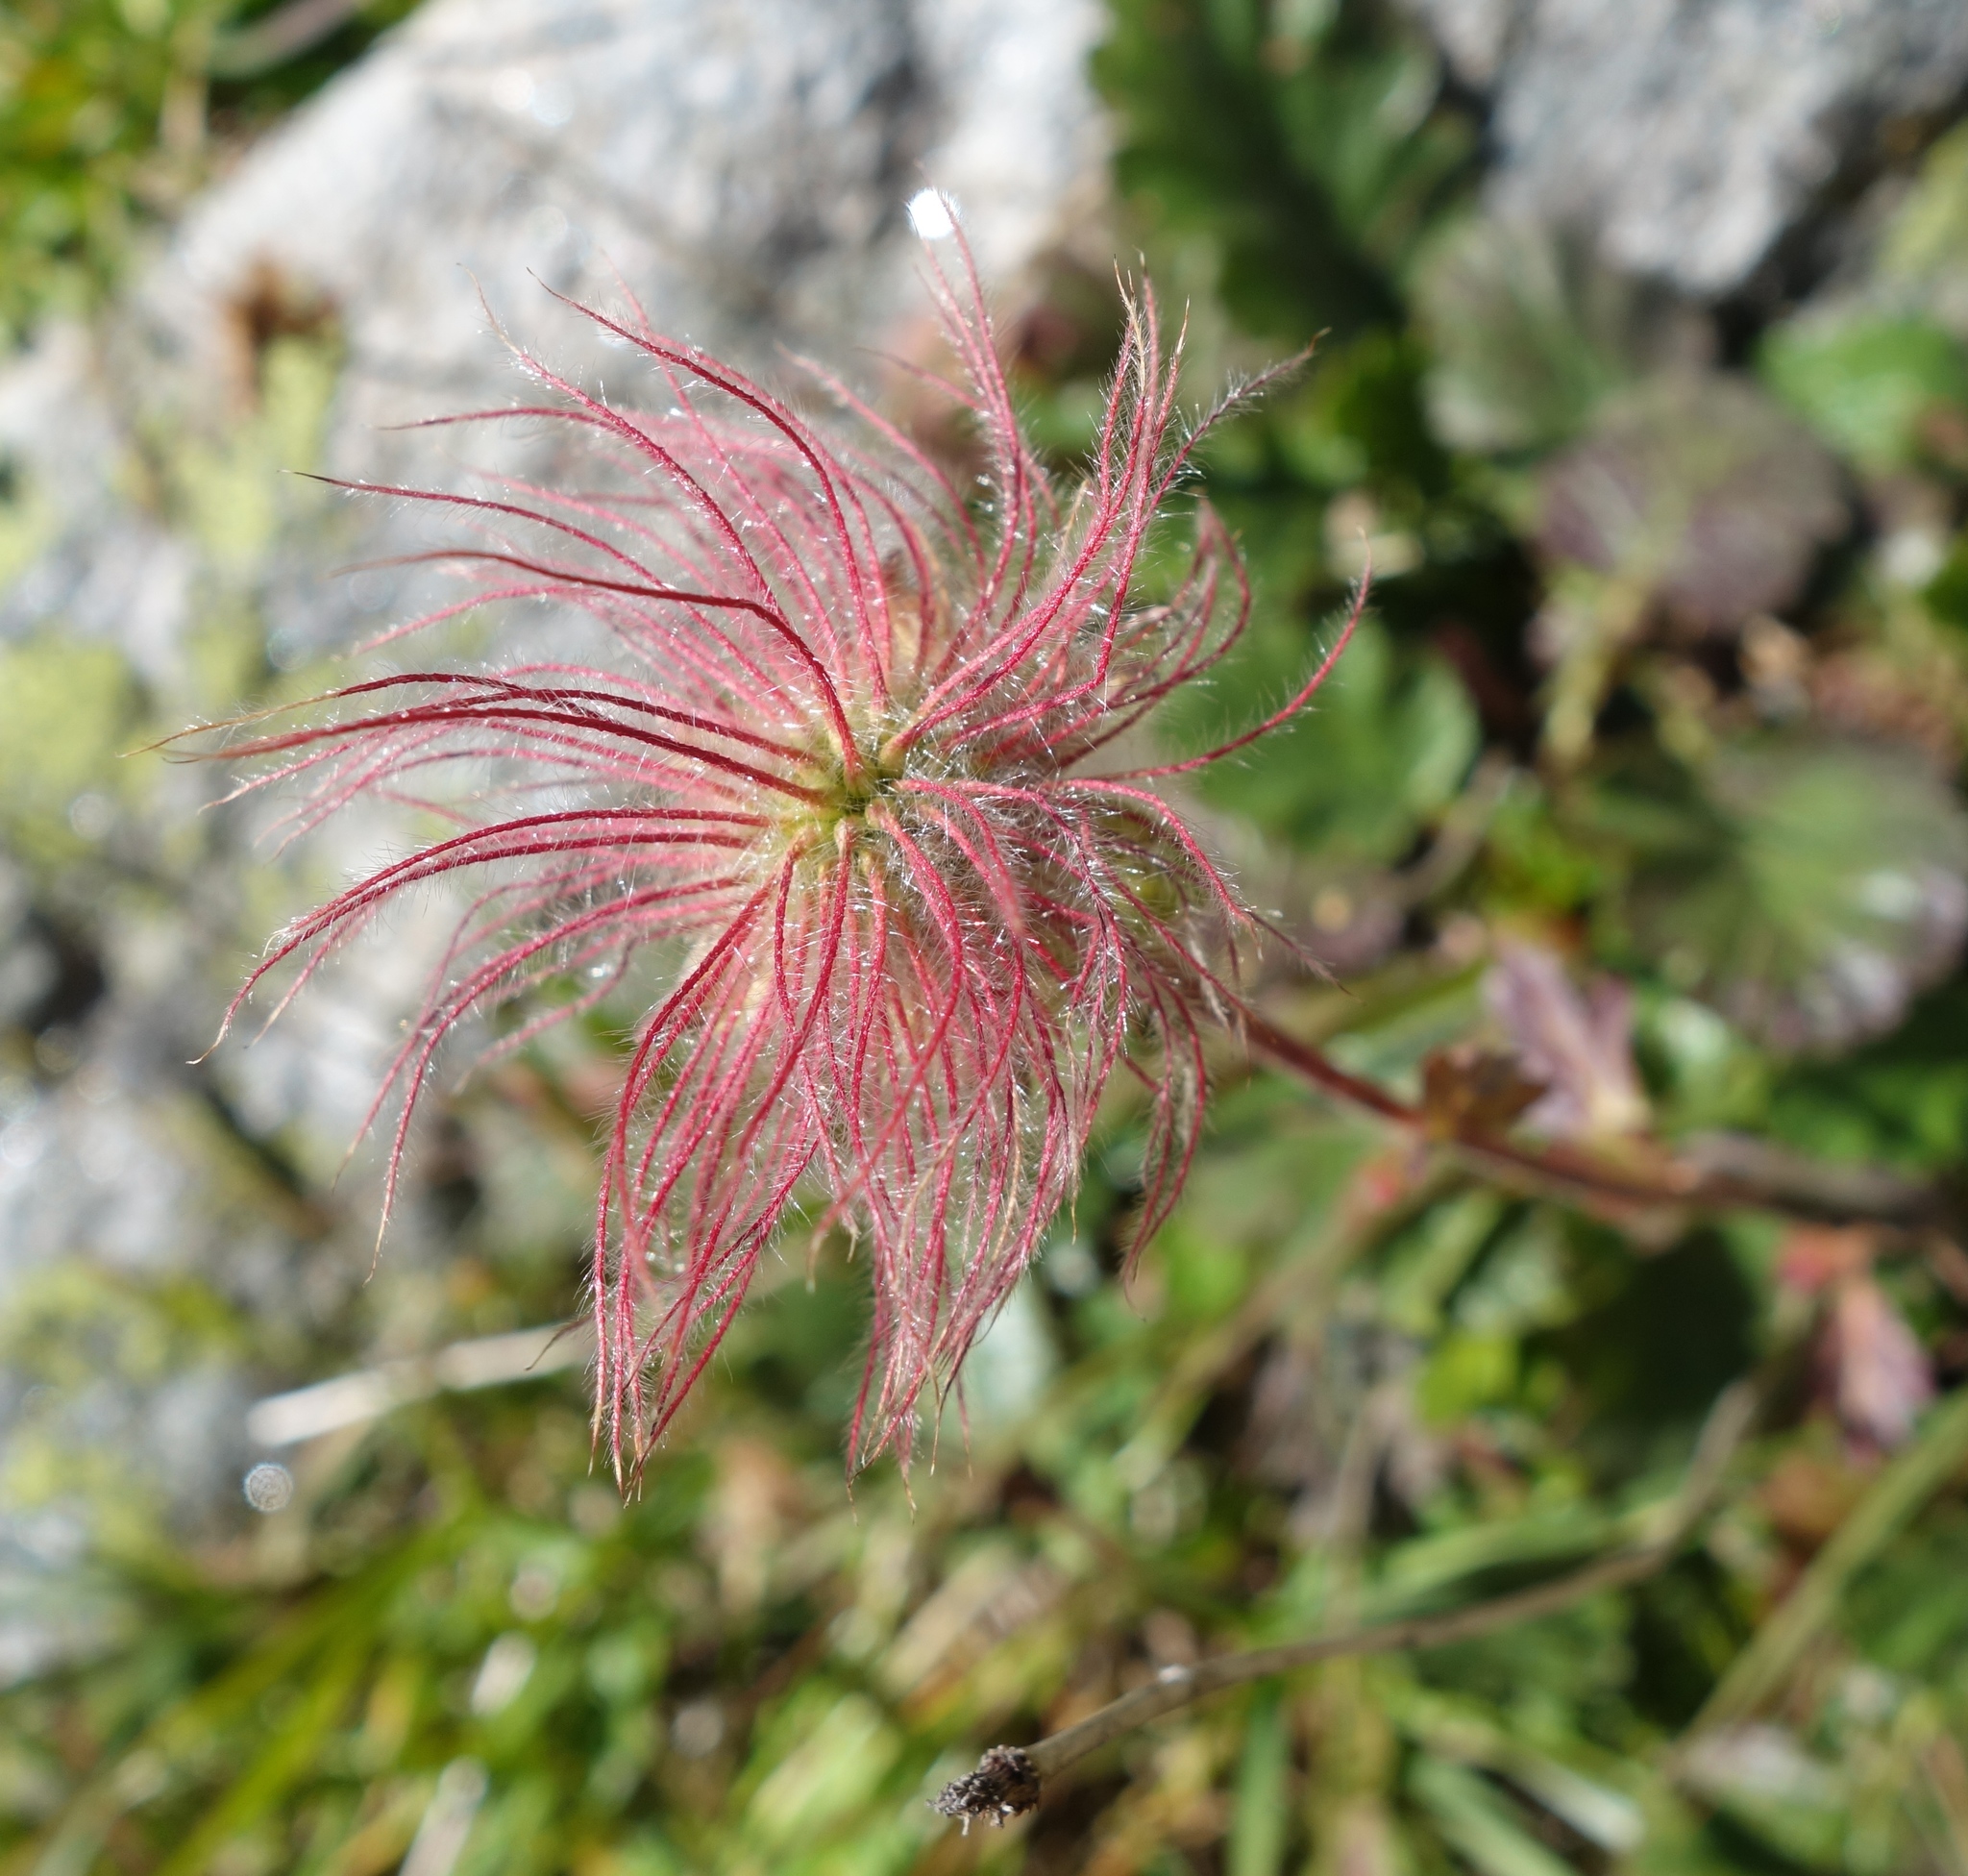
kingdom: Plantae
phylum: Tracheophyta
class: Magnoliopsida
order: Rosales
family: Rosaceae
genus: Geum
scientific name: Geum montanum
